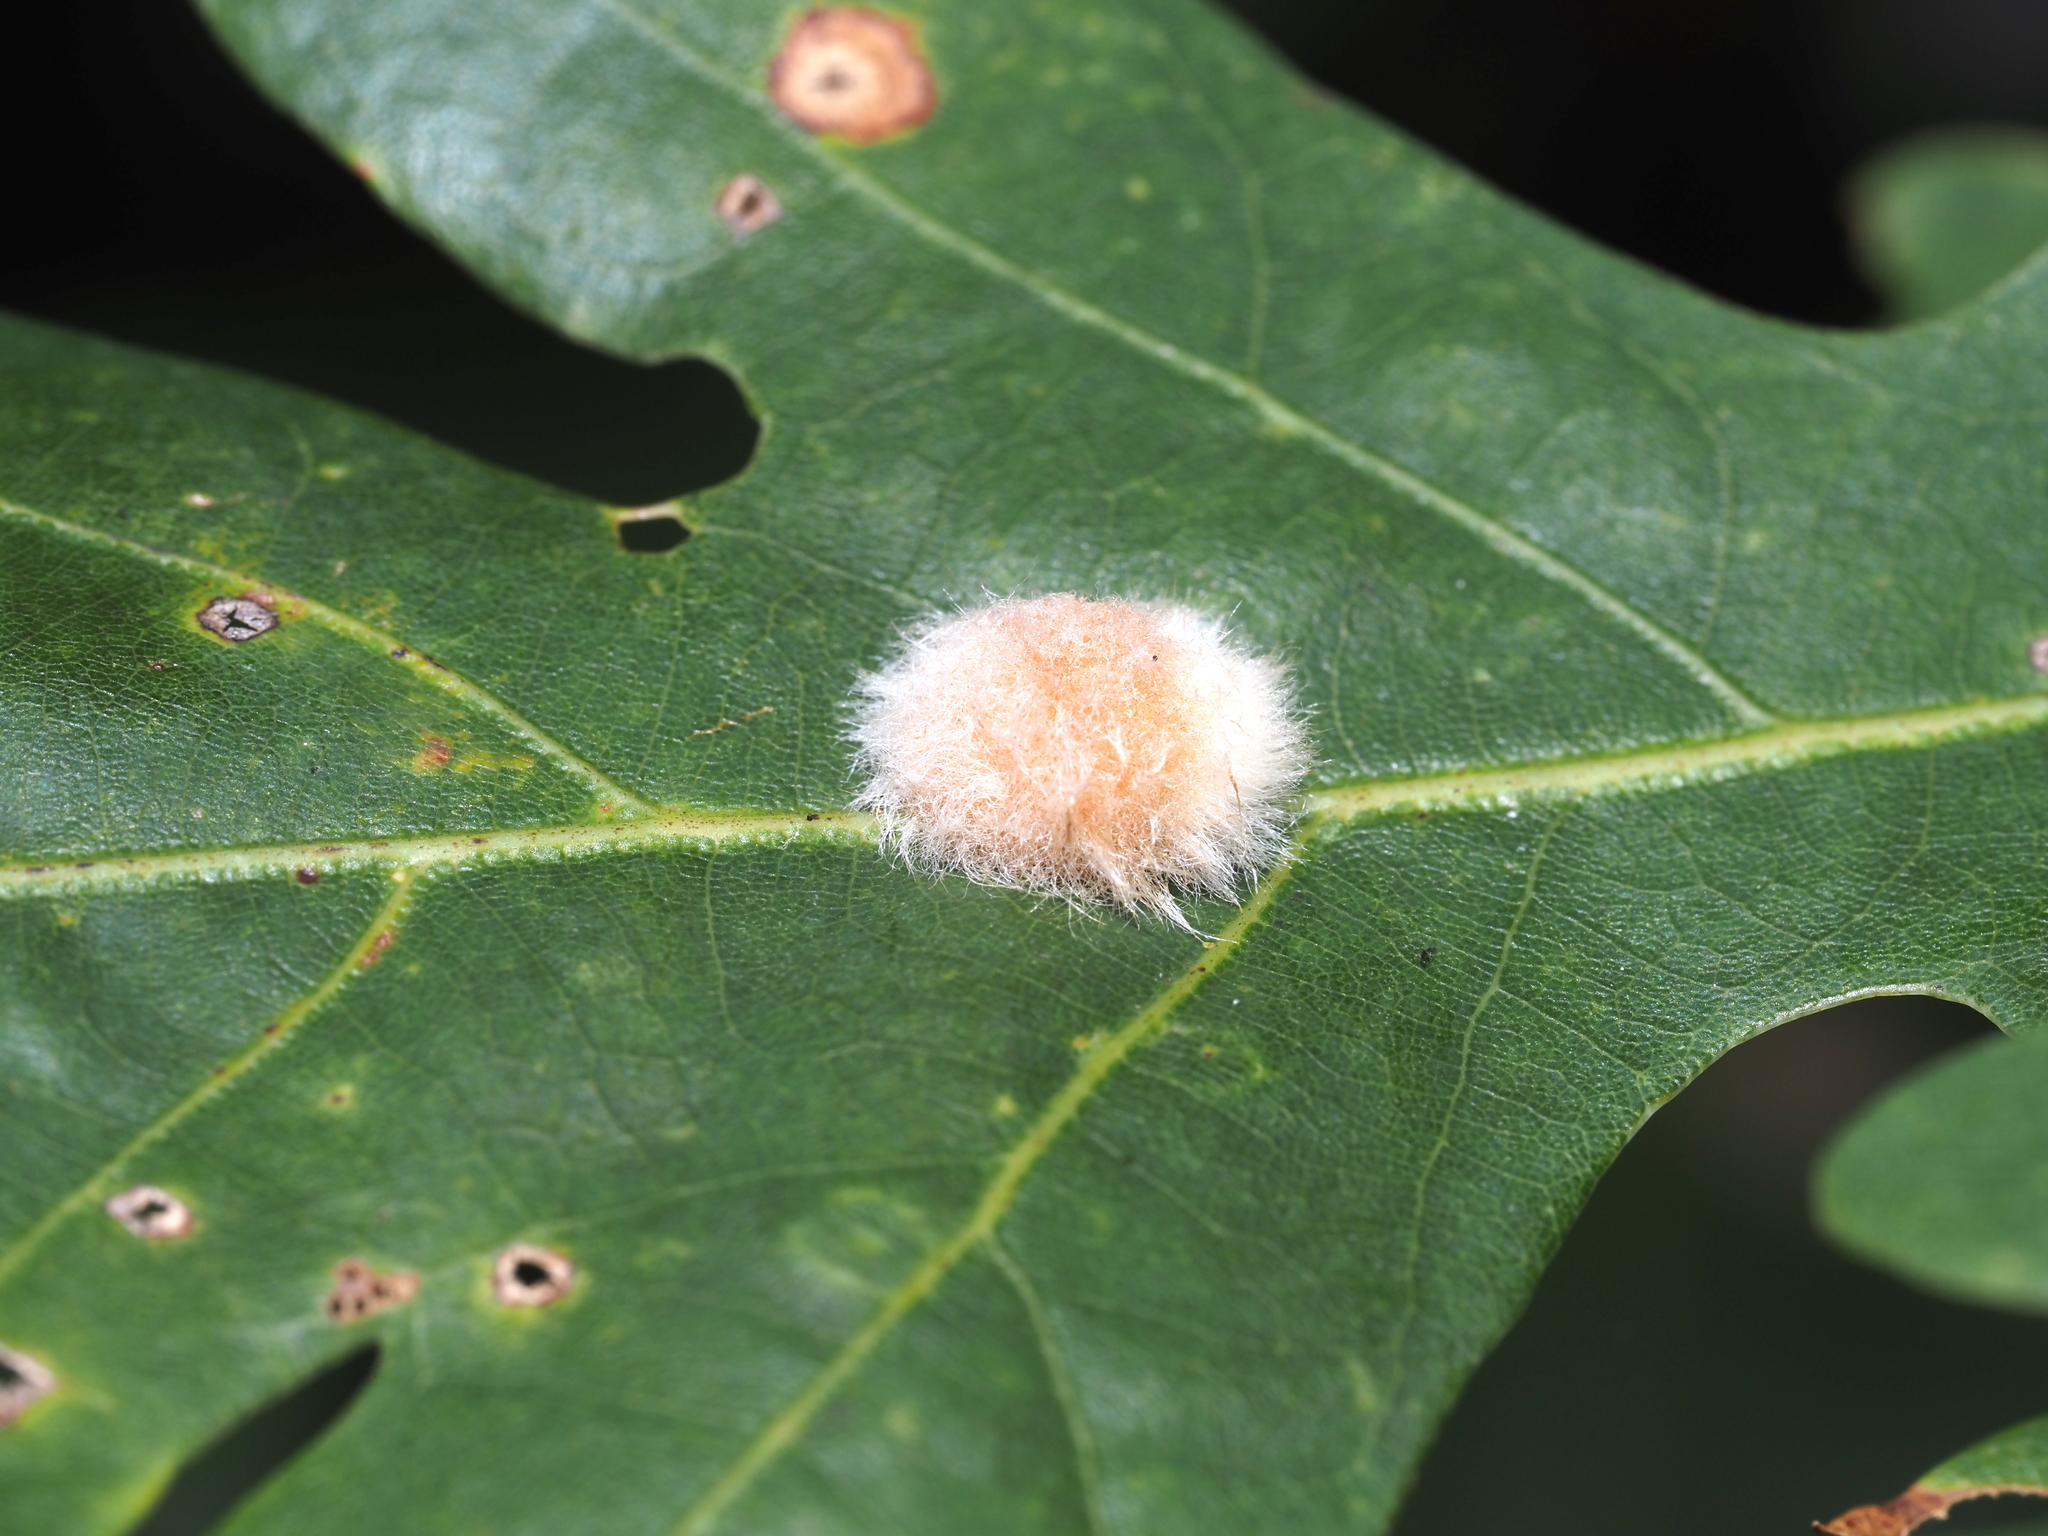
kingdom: Animalia
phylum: Arthropoda
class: Insecta
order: Hymenoptera
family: Cynipidae
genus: Andricus
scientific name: Andricus quercusflocci
